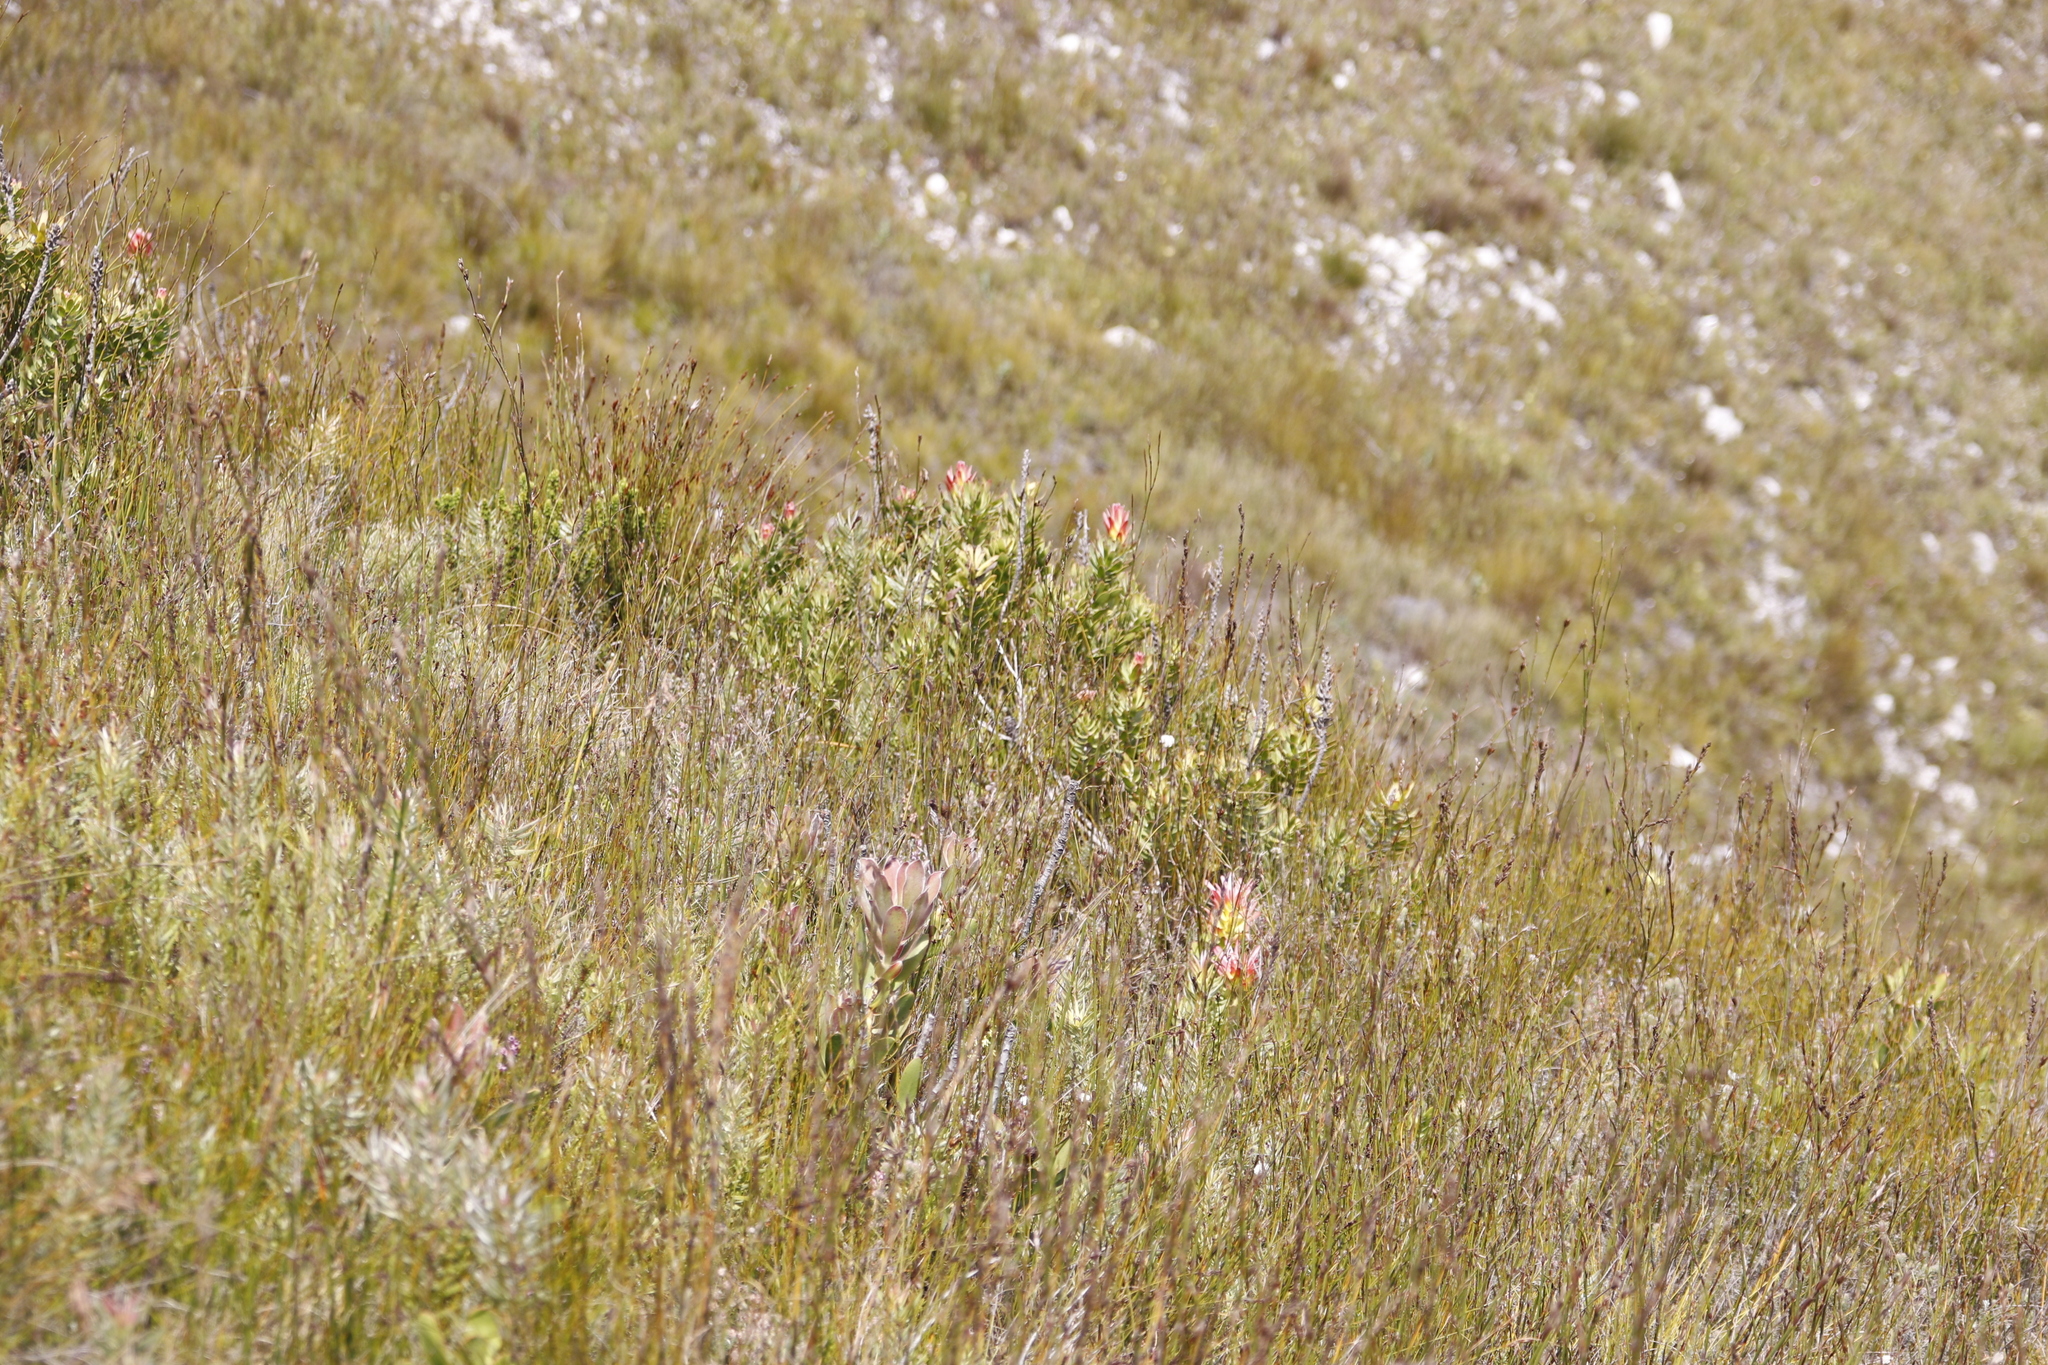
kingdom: Plantae
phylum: Tracheophyta
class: Magnoliopsida
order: Proteales
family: Proteaceae
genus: Mimetes
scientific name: Mimetes cucullatus
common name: Common pagoda
